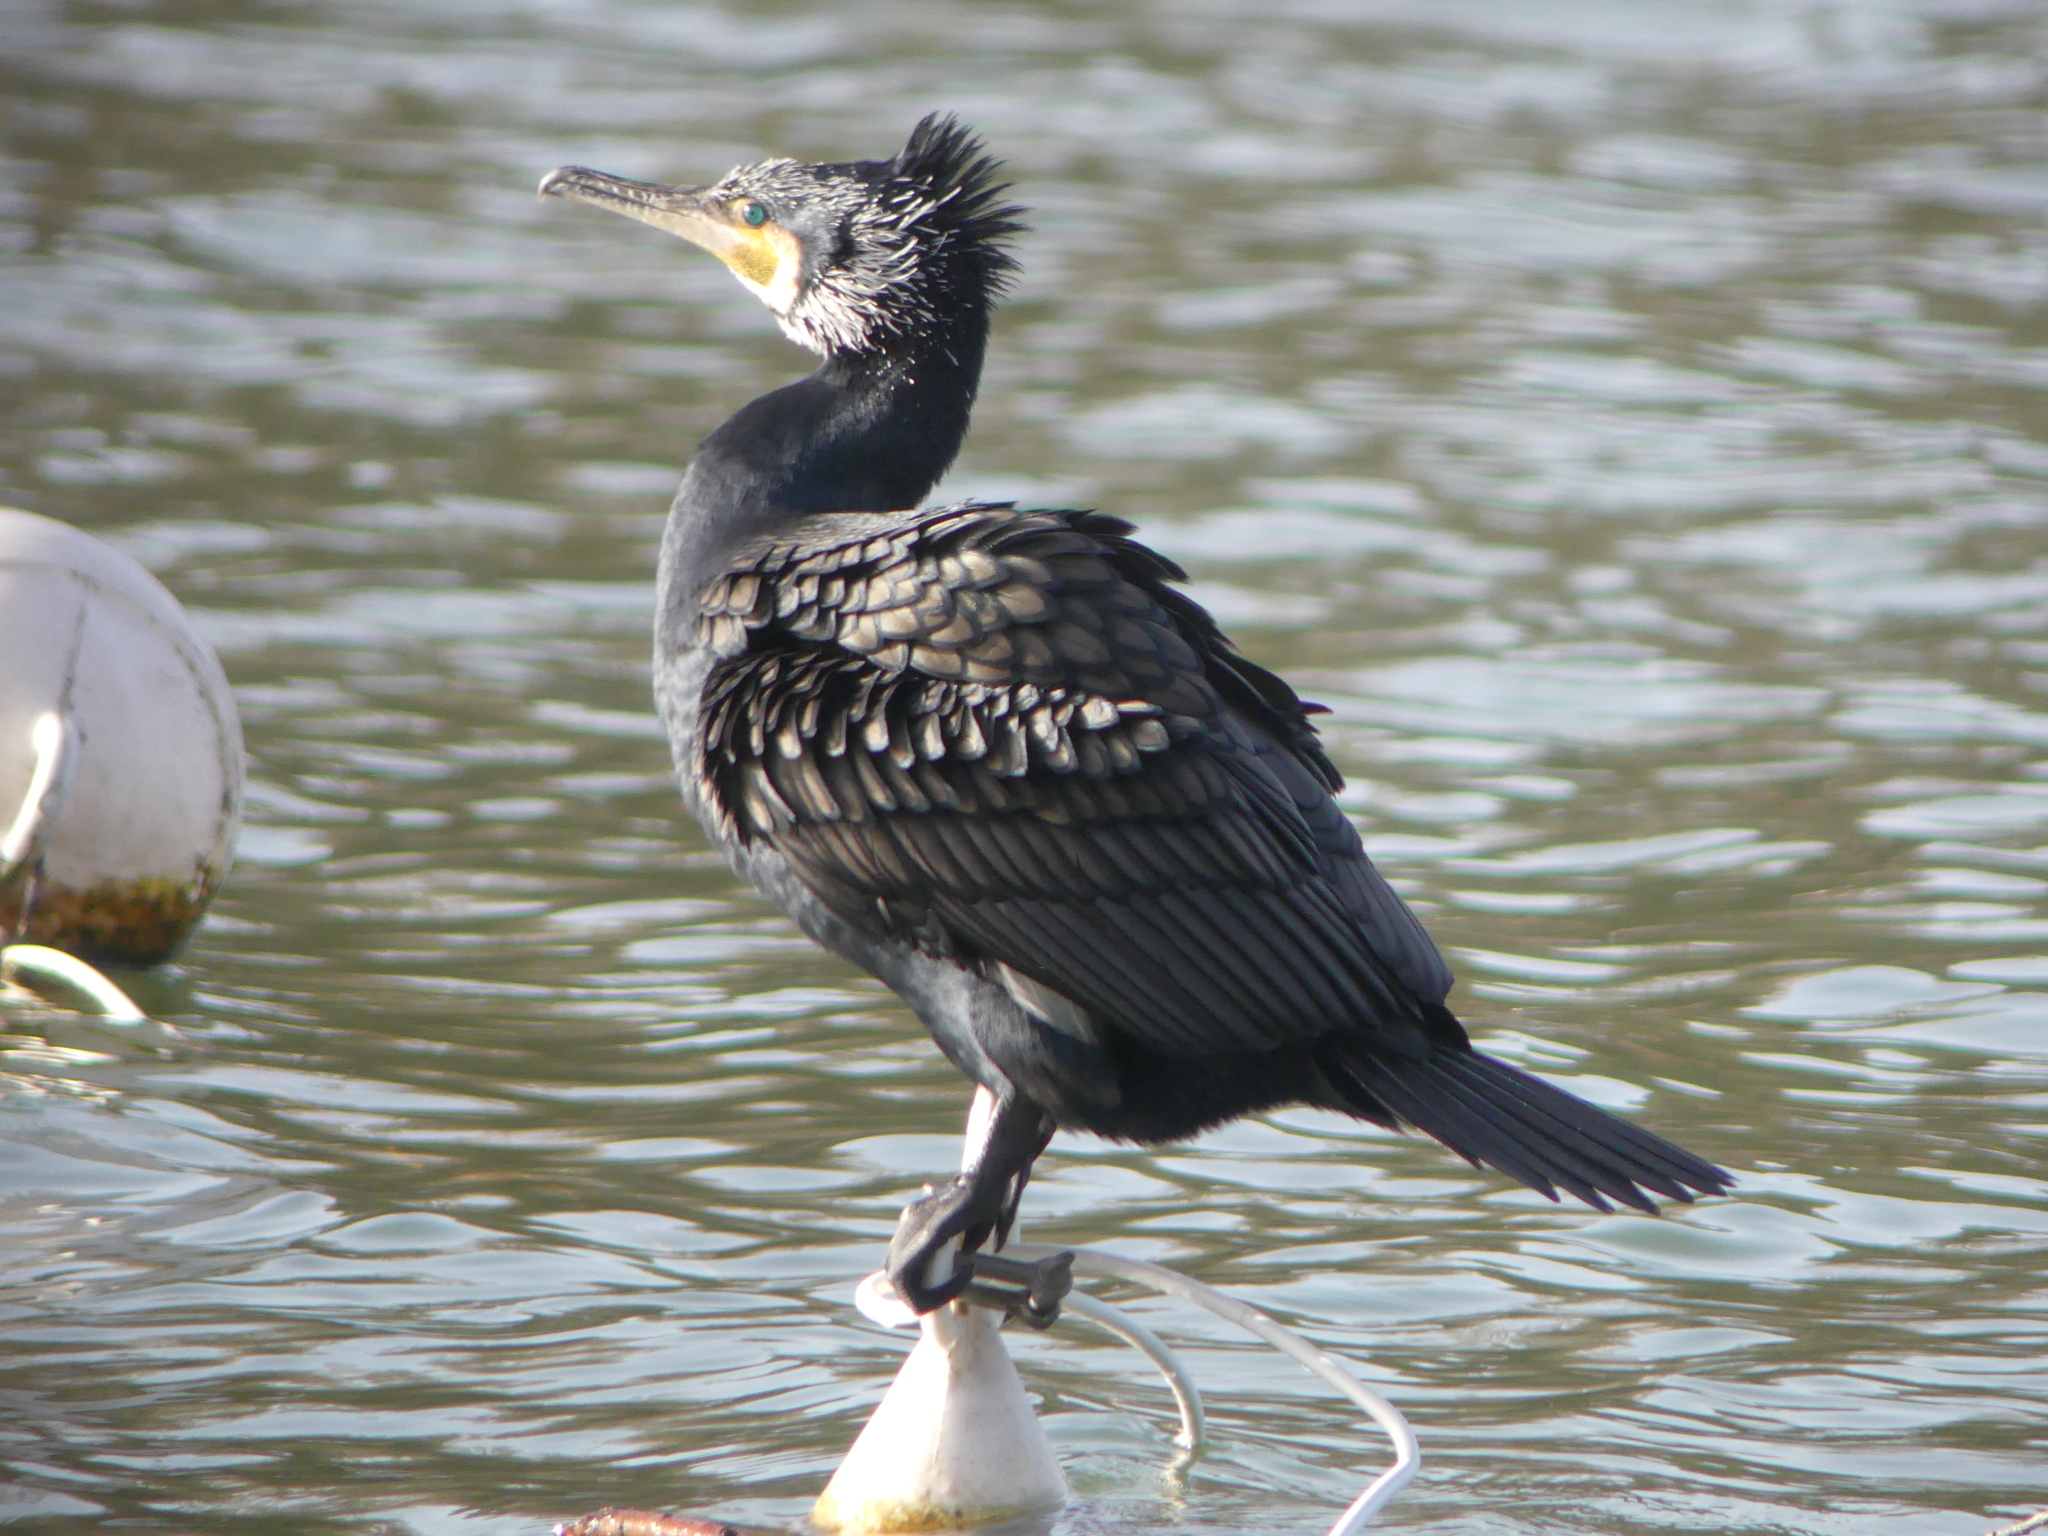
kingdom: Animalia
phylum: Chordata
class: Aves
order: Suliformes
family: Phalacrocoracidae
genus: Phalacrocorax
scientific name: Phalacrocorax carbo
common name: Great cormorant
